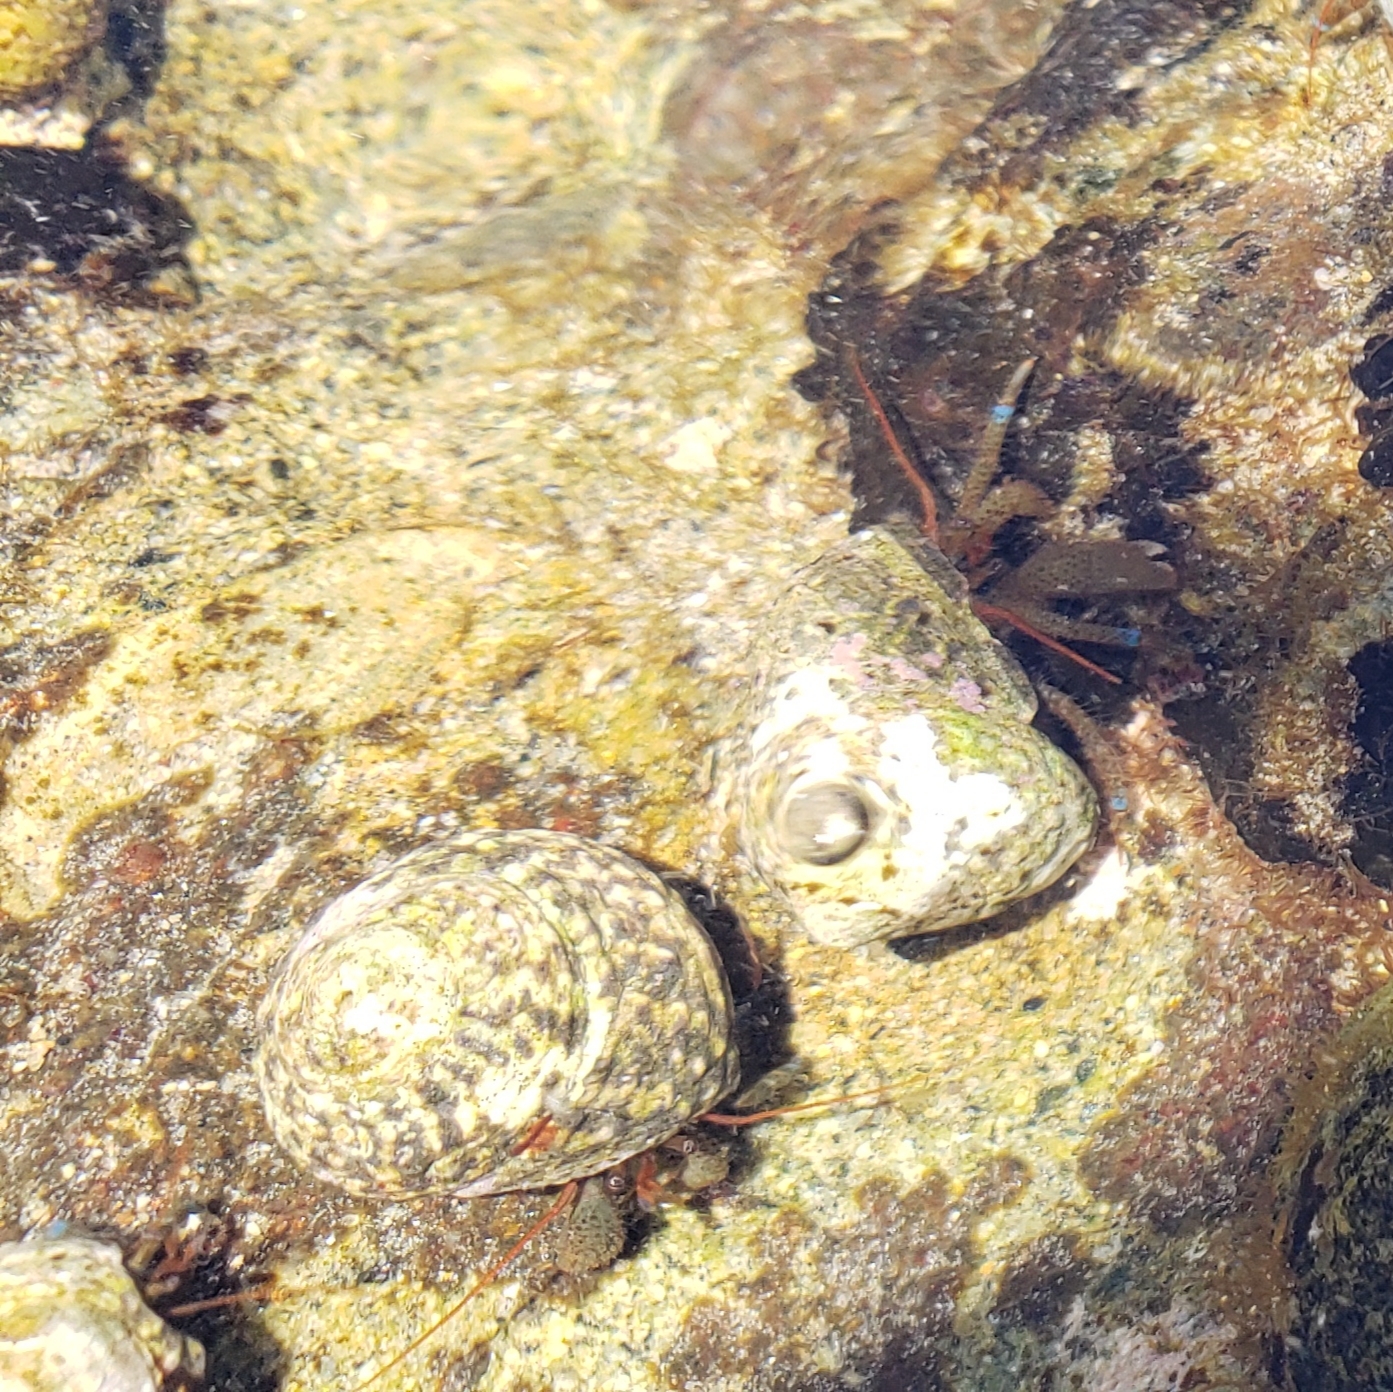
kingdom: Animalia
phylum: Arthropoda
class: Malacostraca
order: Decapoda
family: Paguridae
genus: Pagurus
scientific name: Pagurus samuelis
